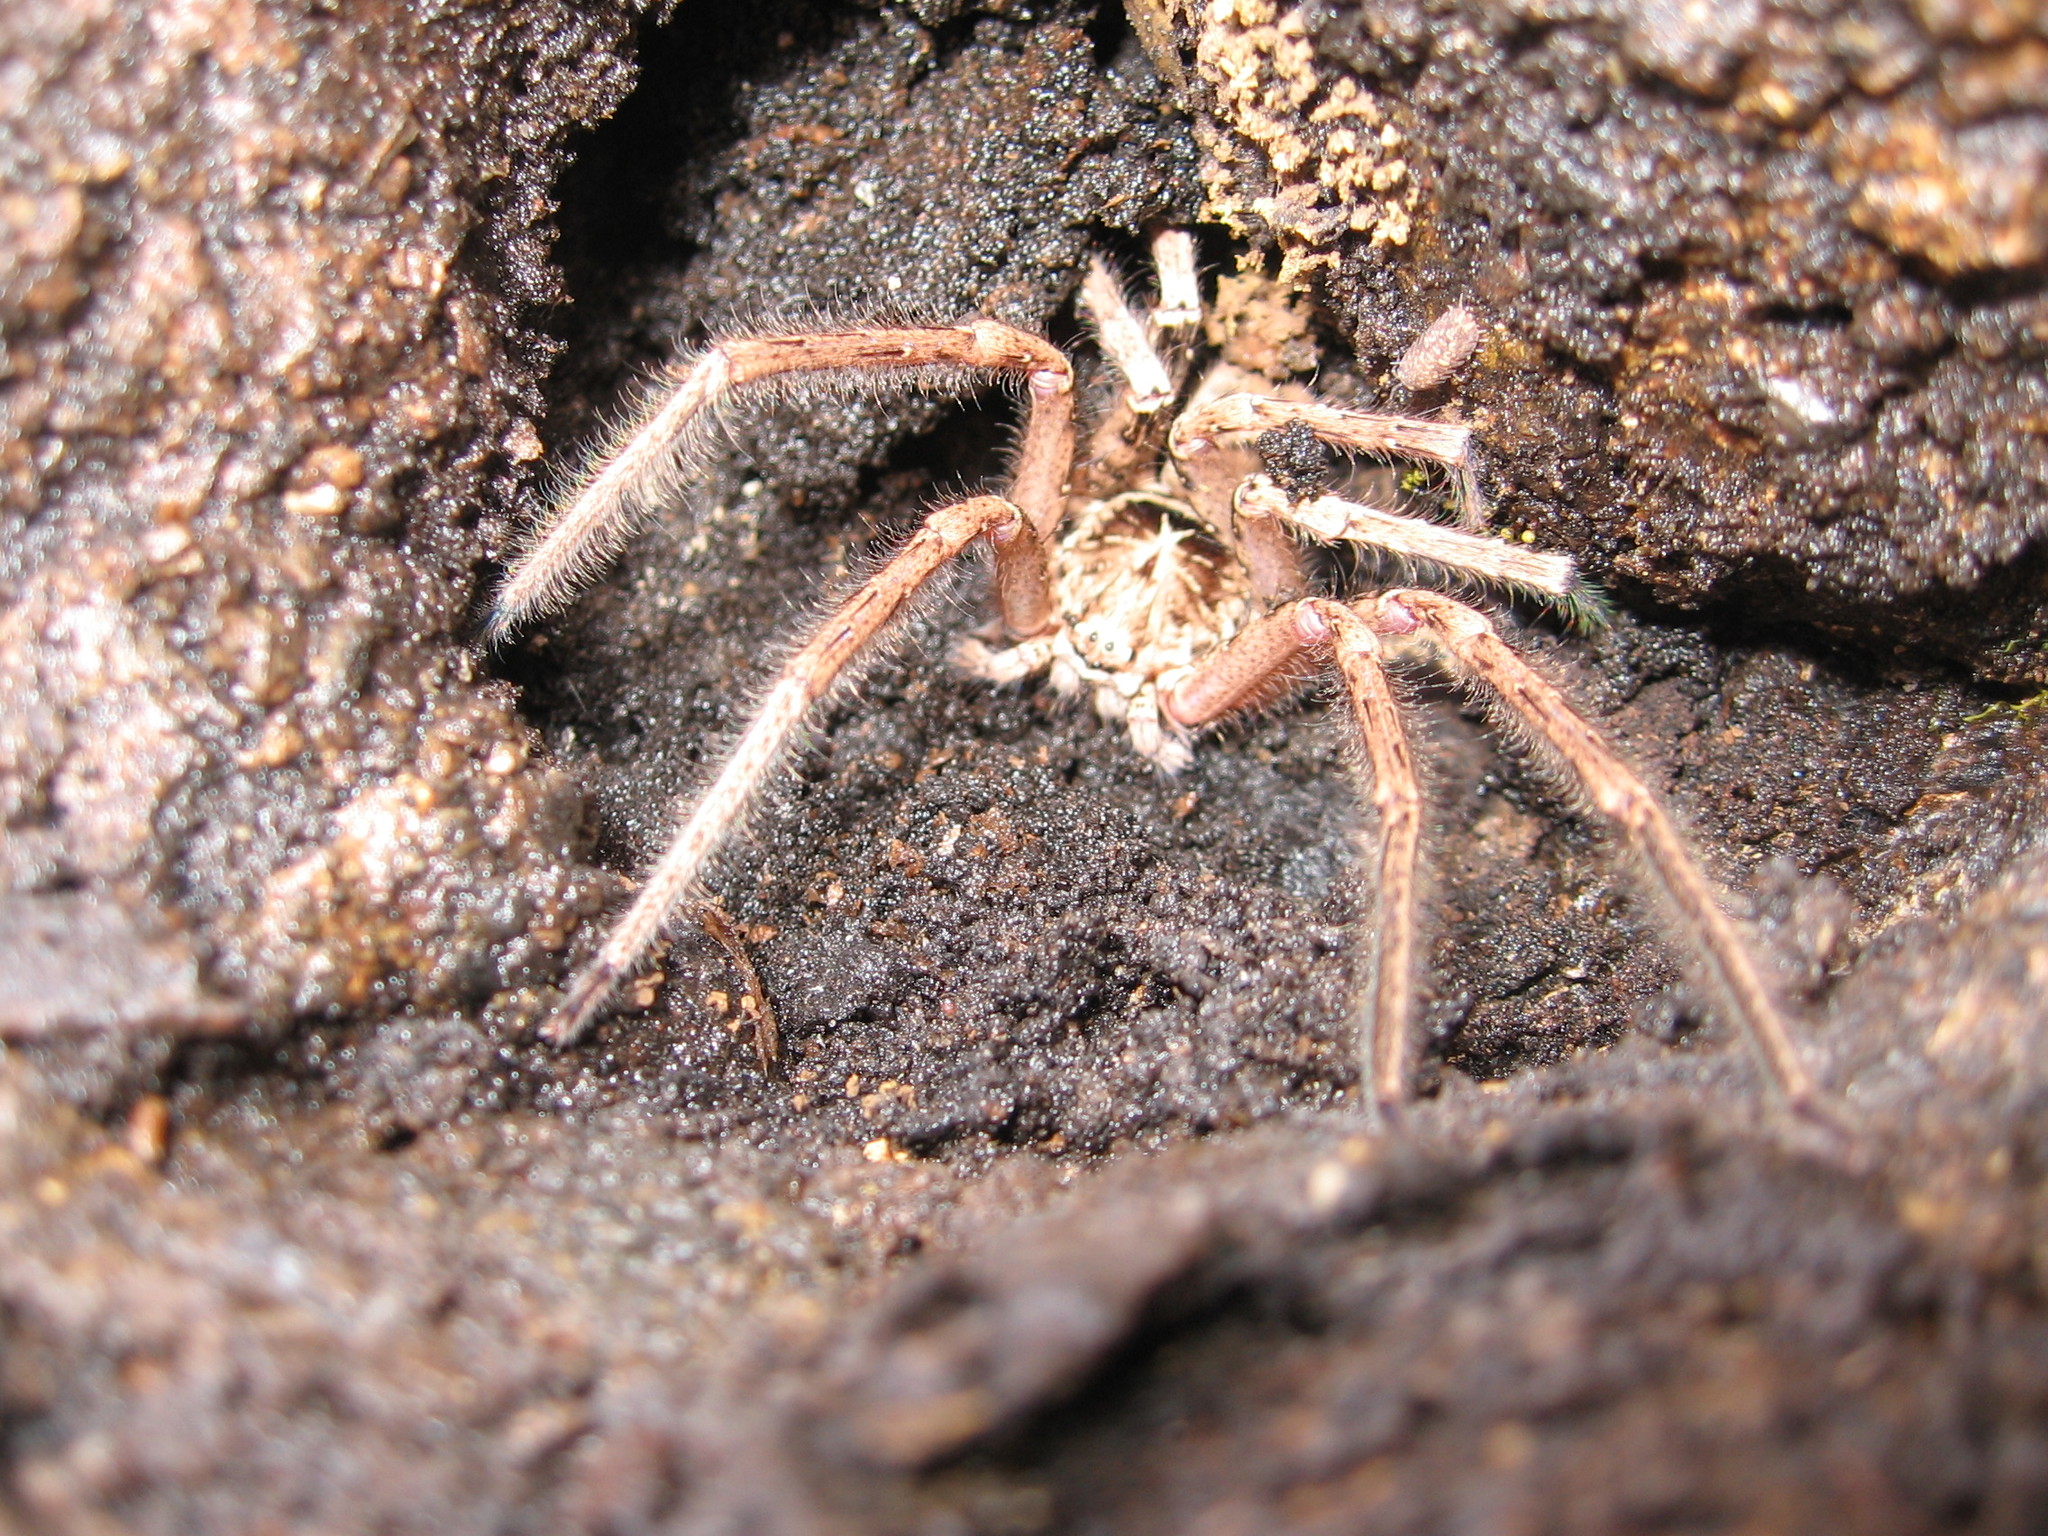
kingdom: Animalia
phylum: Arthropoda
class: Arachnida
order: Araneae
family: Sparassidae
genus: Heteropoda
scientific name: Heteropoda jugulans
